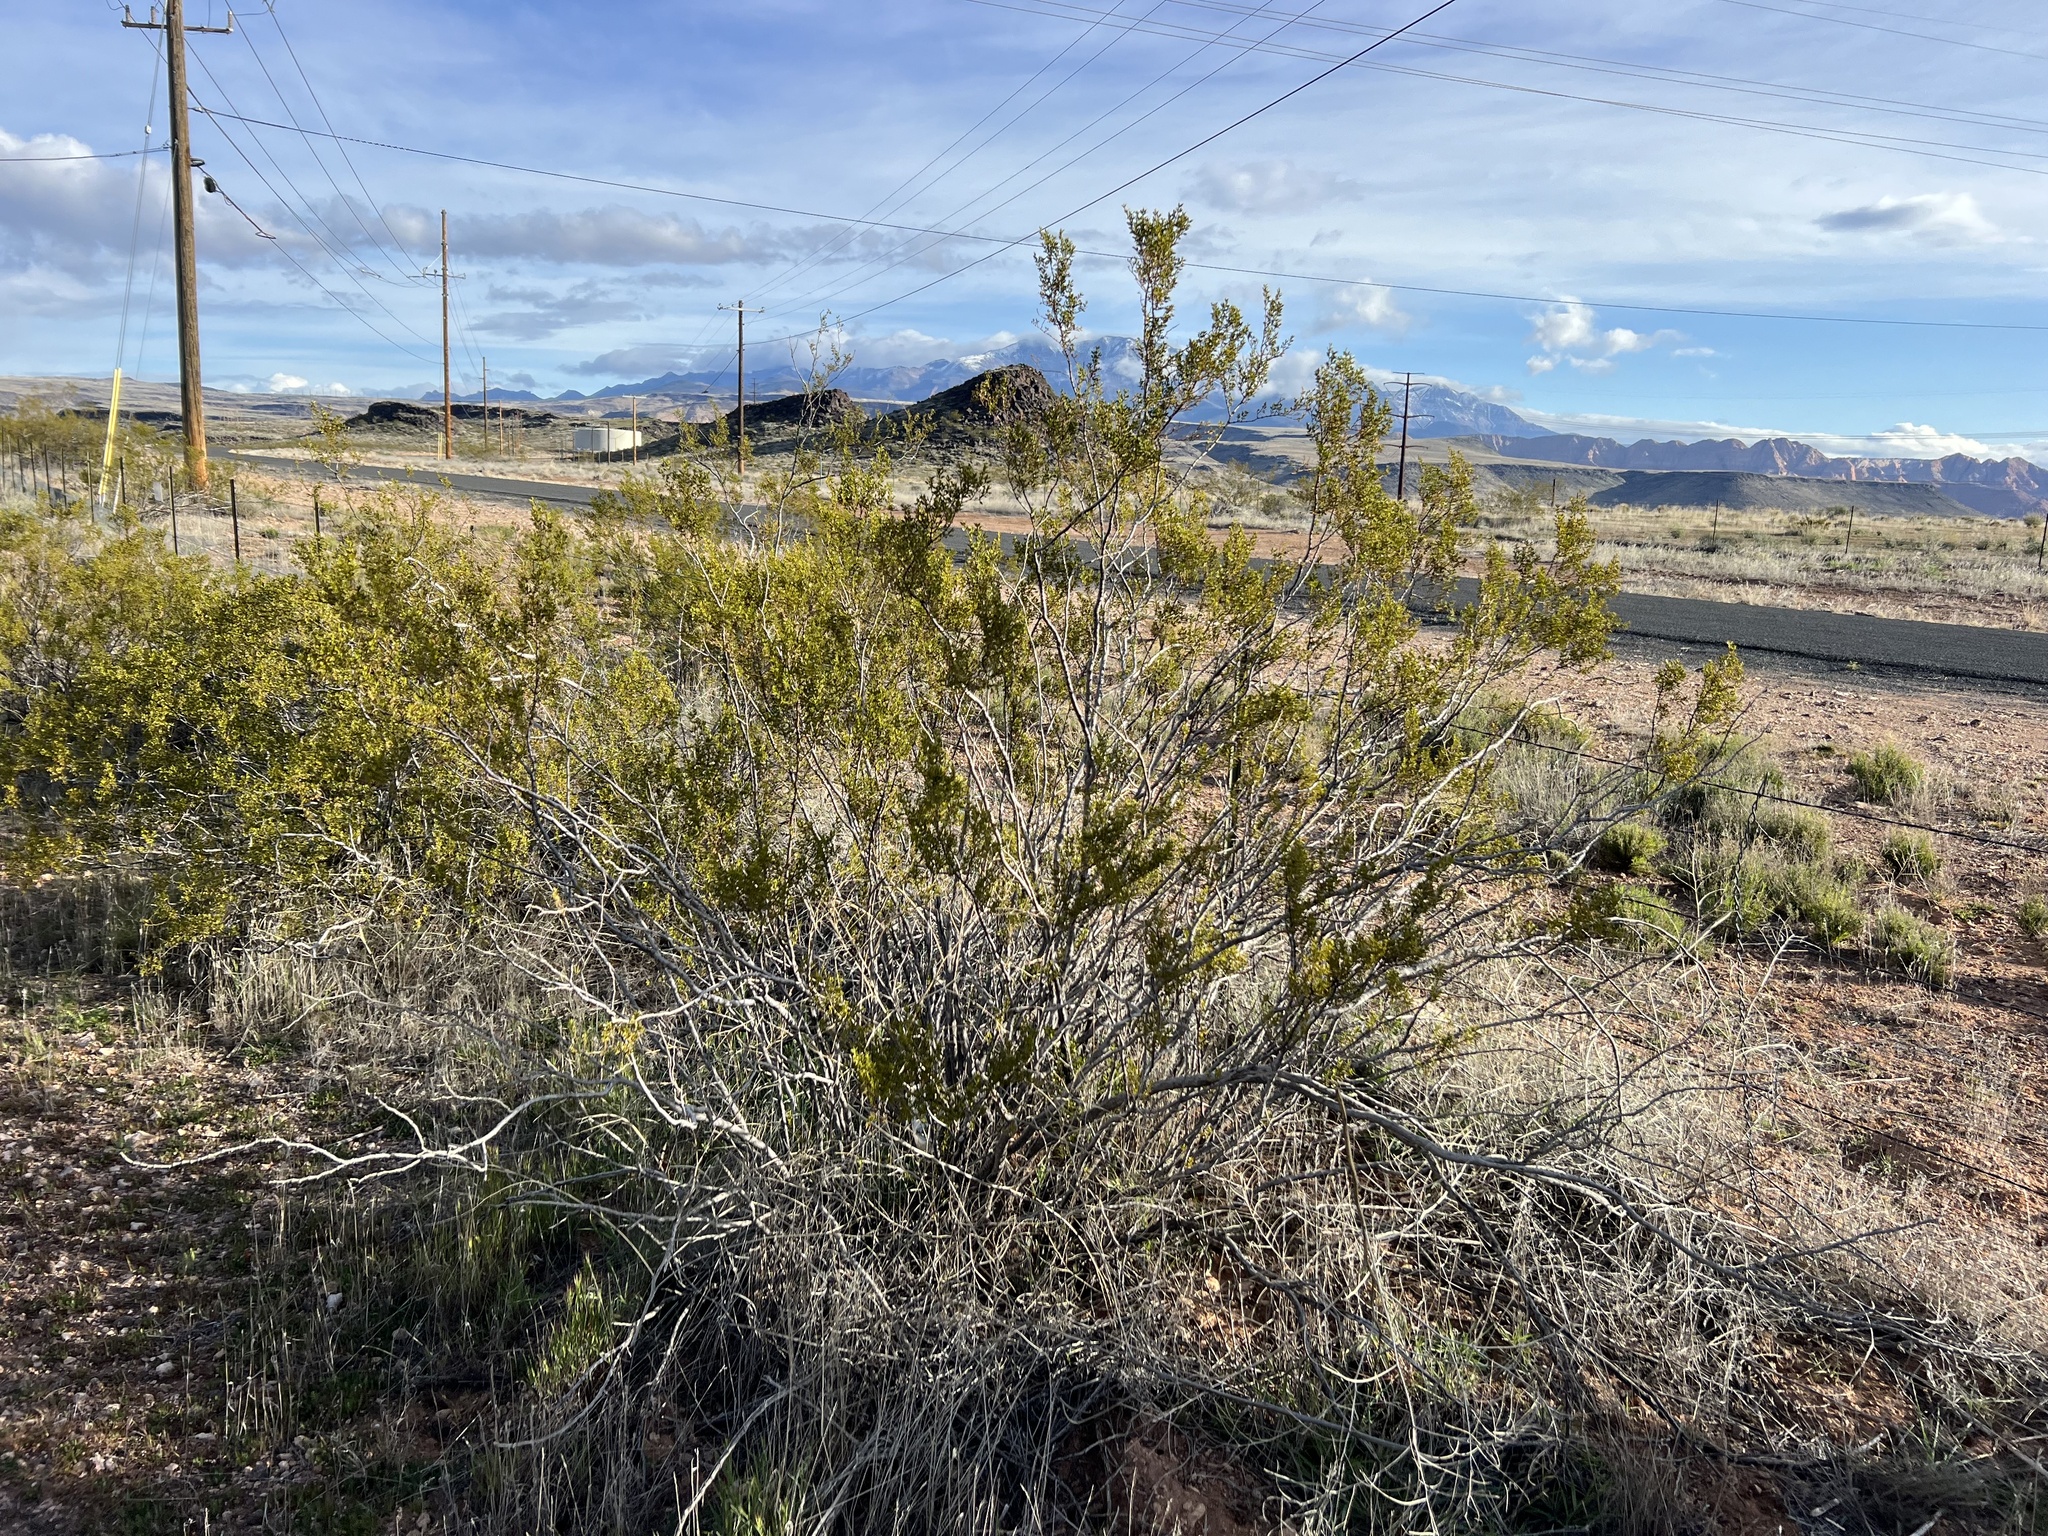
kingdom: Plantae
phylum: Tracheophyta
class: Magnoliopsida
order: Zygophyllales
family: Zygophyllaceae
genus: Larrea
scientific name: Larrea tridentata
